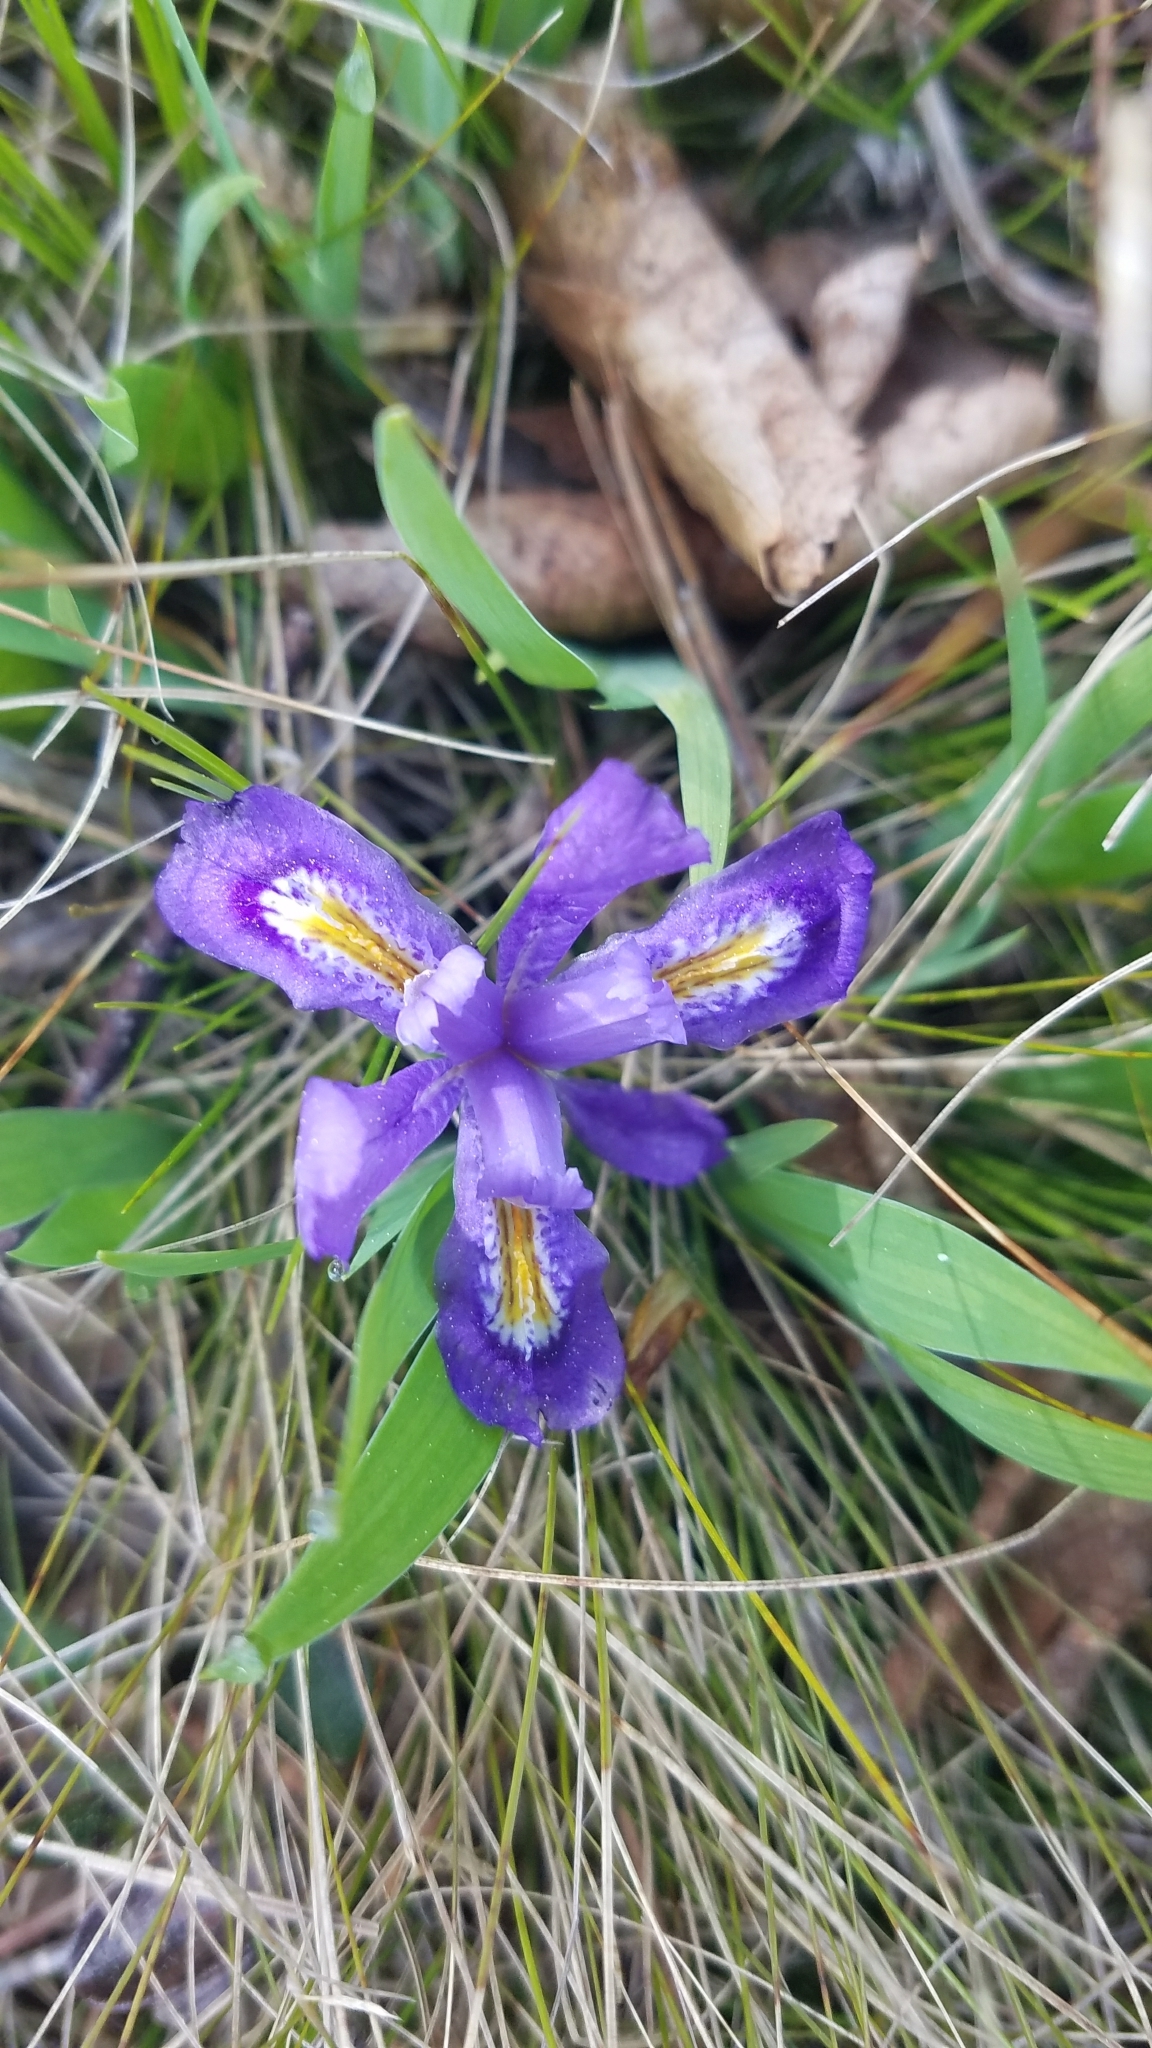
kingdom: Plantae
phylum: Tracheophyta
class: Liliopsida
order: Asparagales
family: Iridaceae
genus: Iris
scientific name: Iris lacustris
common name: Dwarf lake iris
